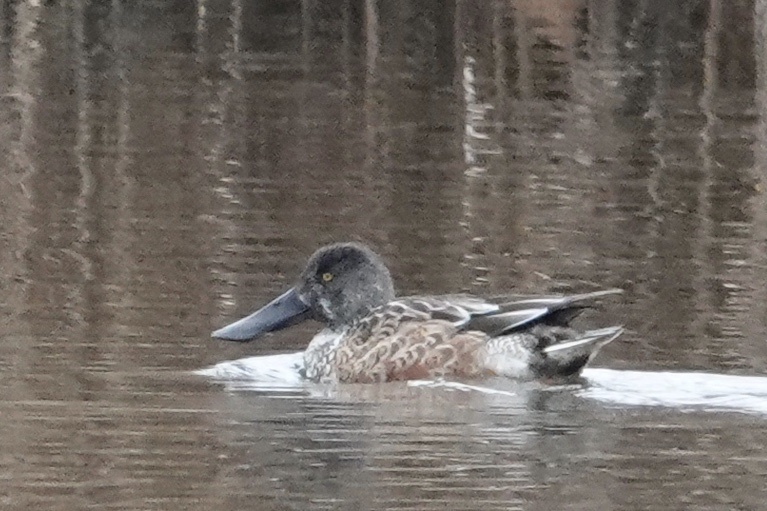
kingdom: Animalia
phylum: Chordata
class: Aves
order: Anseriformes
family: Anatidae
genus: Spatula
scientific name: Spatula clypeata
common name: Northern shoveler
